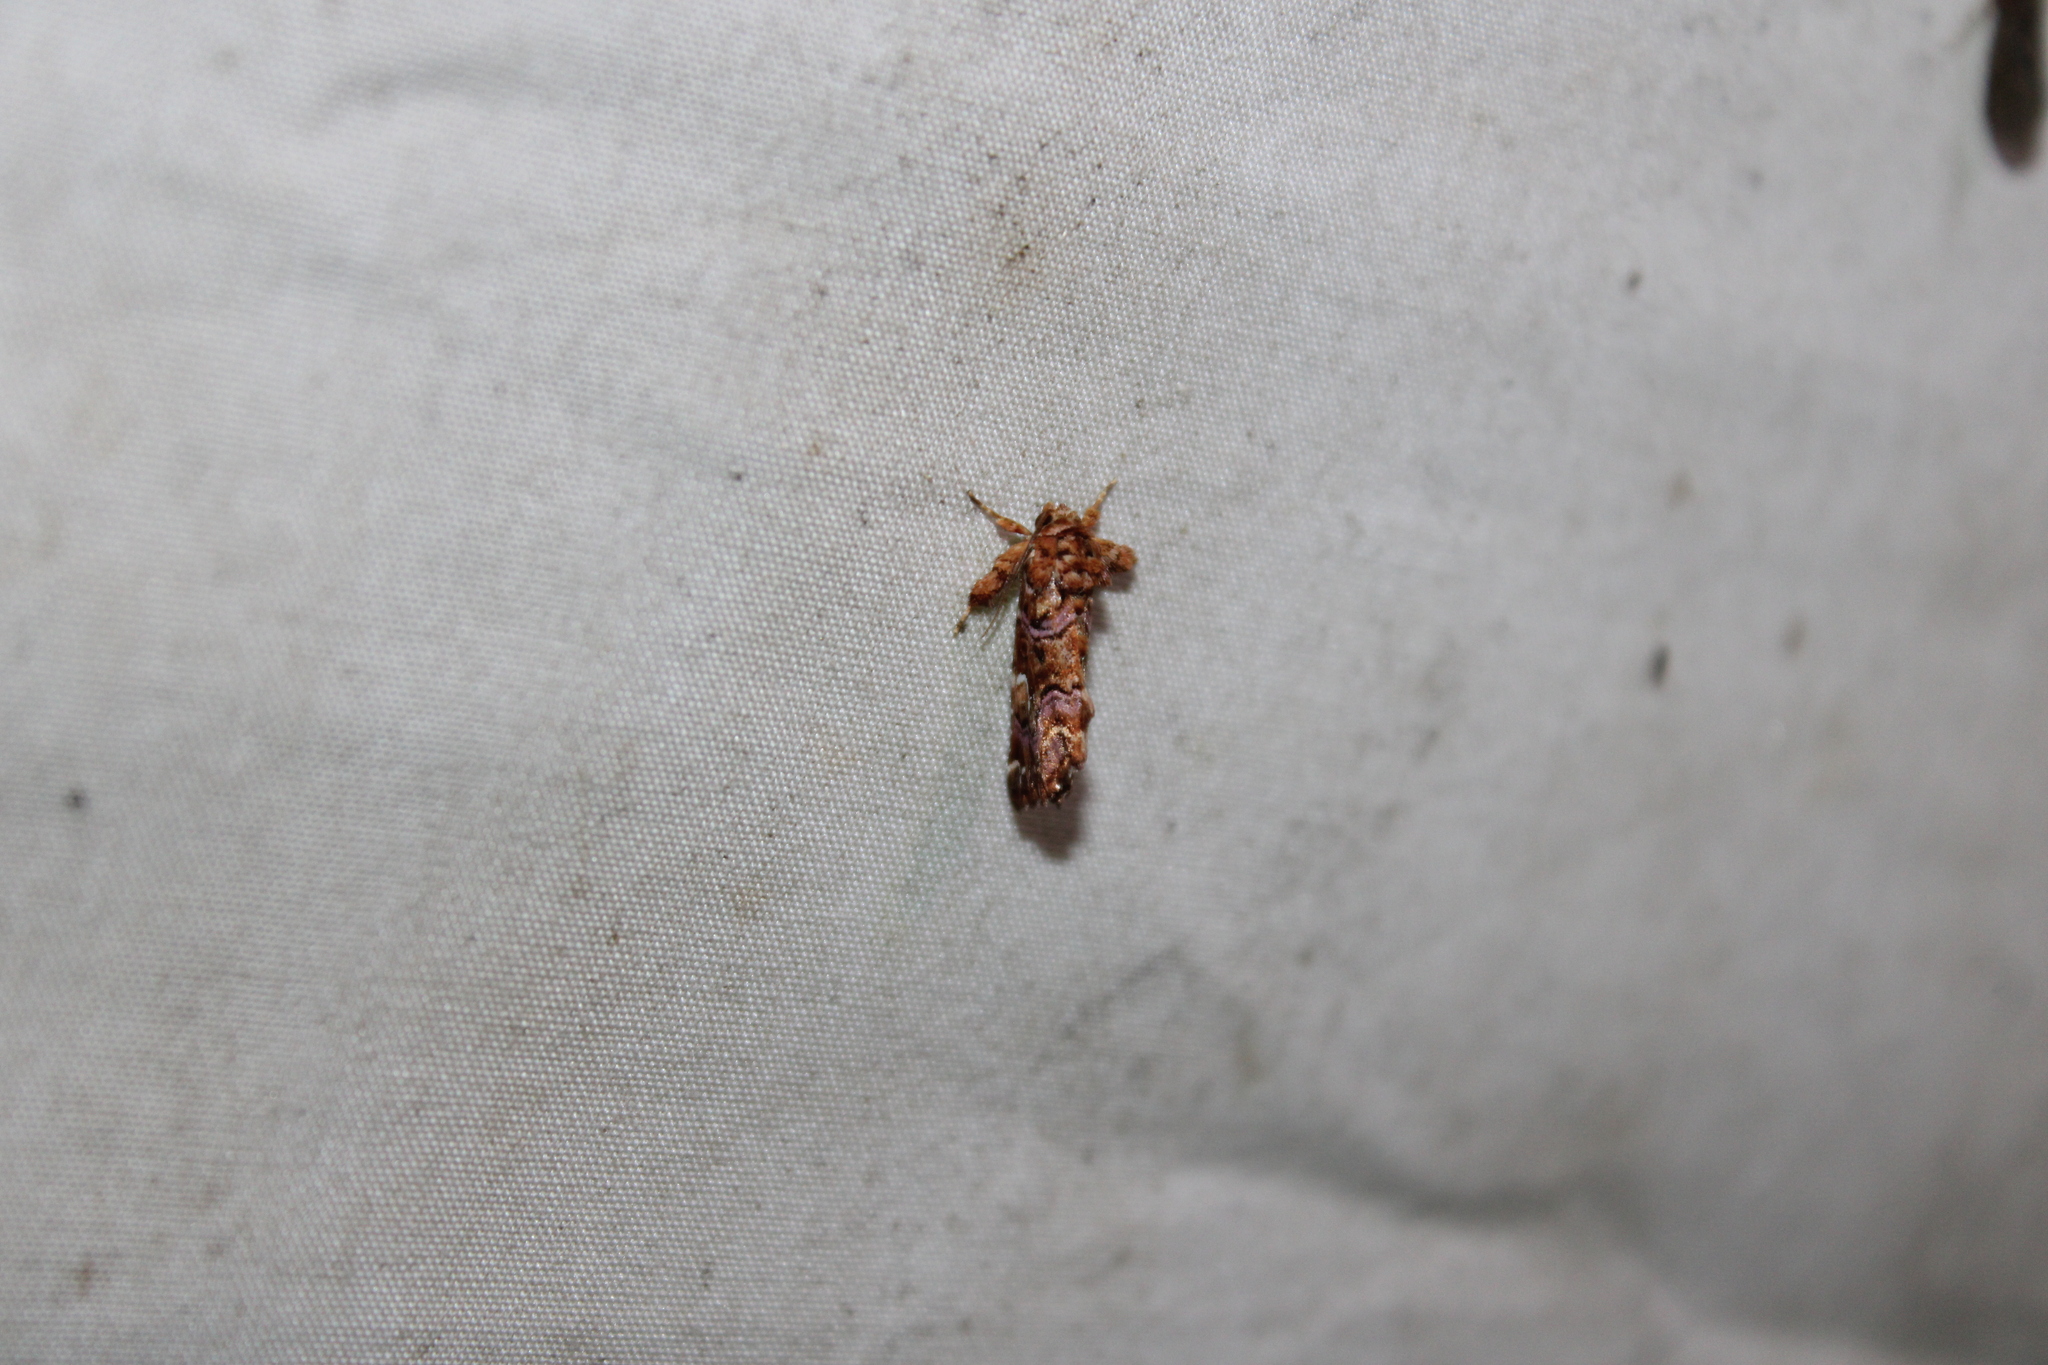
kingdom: Animalia
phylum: Arthropoda
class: Insecta
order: Lepidoptera
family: Noctuidae
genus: Callopistria
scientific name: Callopistria mollissima
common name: Pink-shaded fern moth
